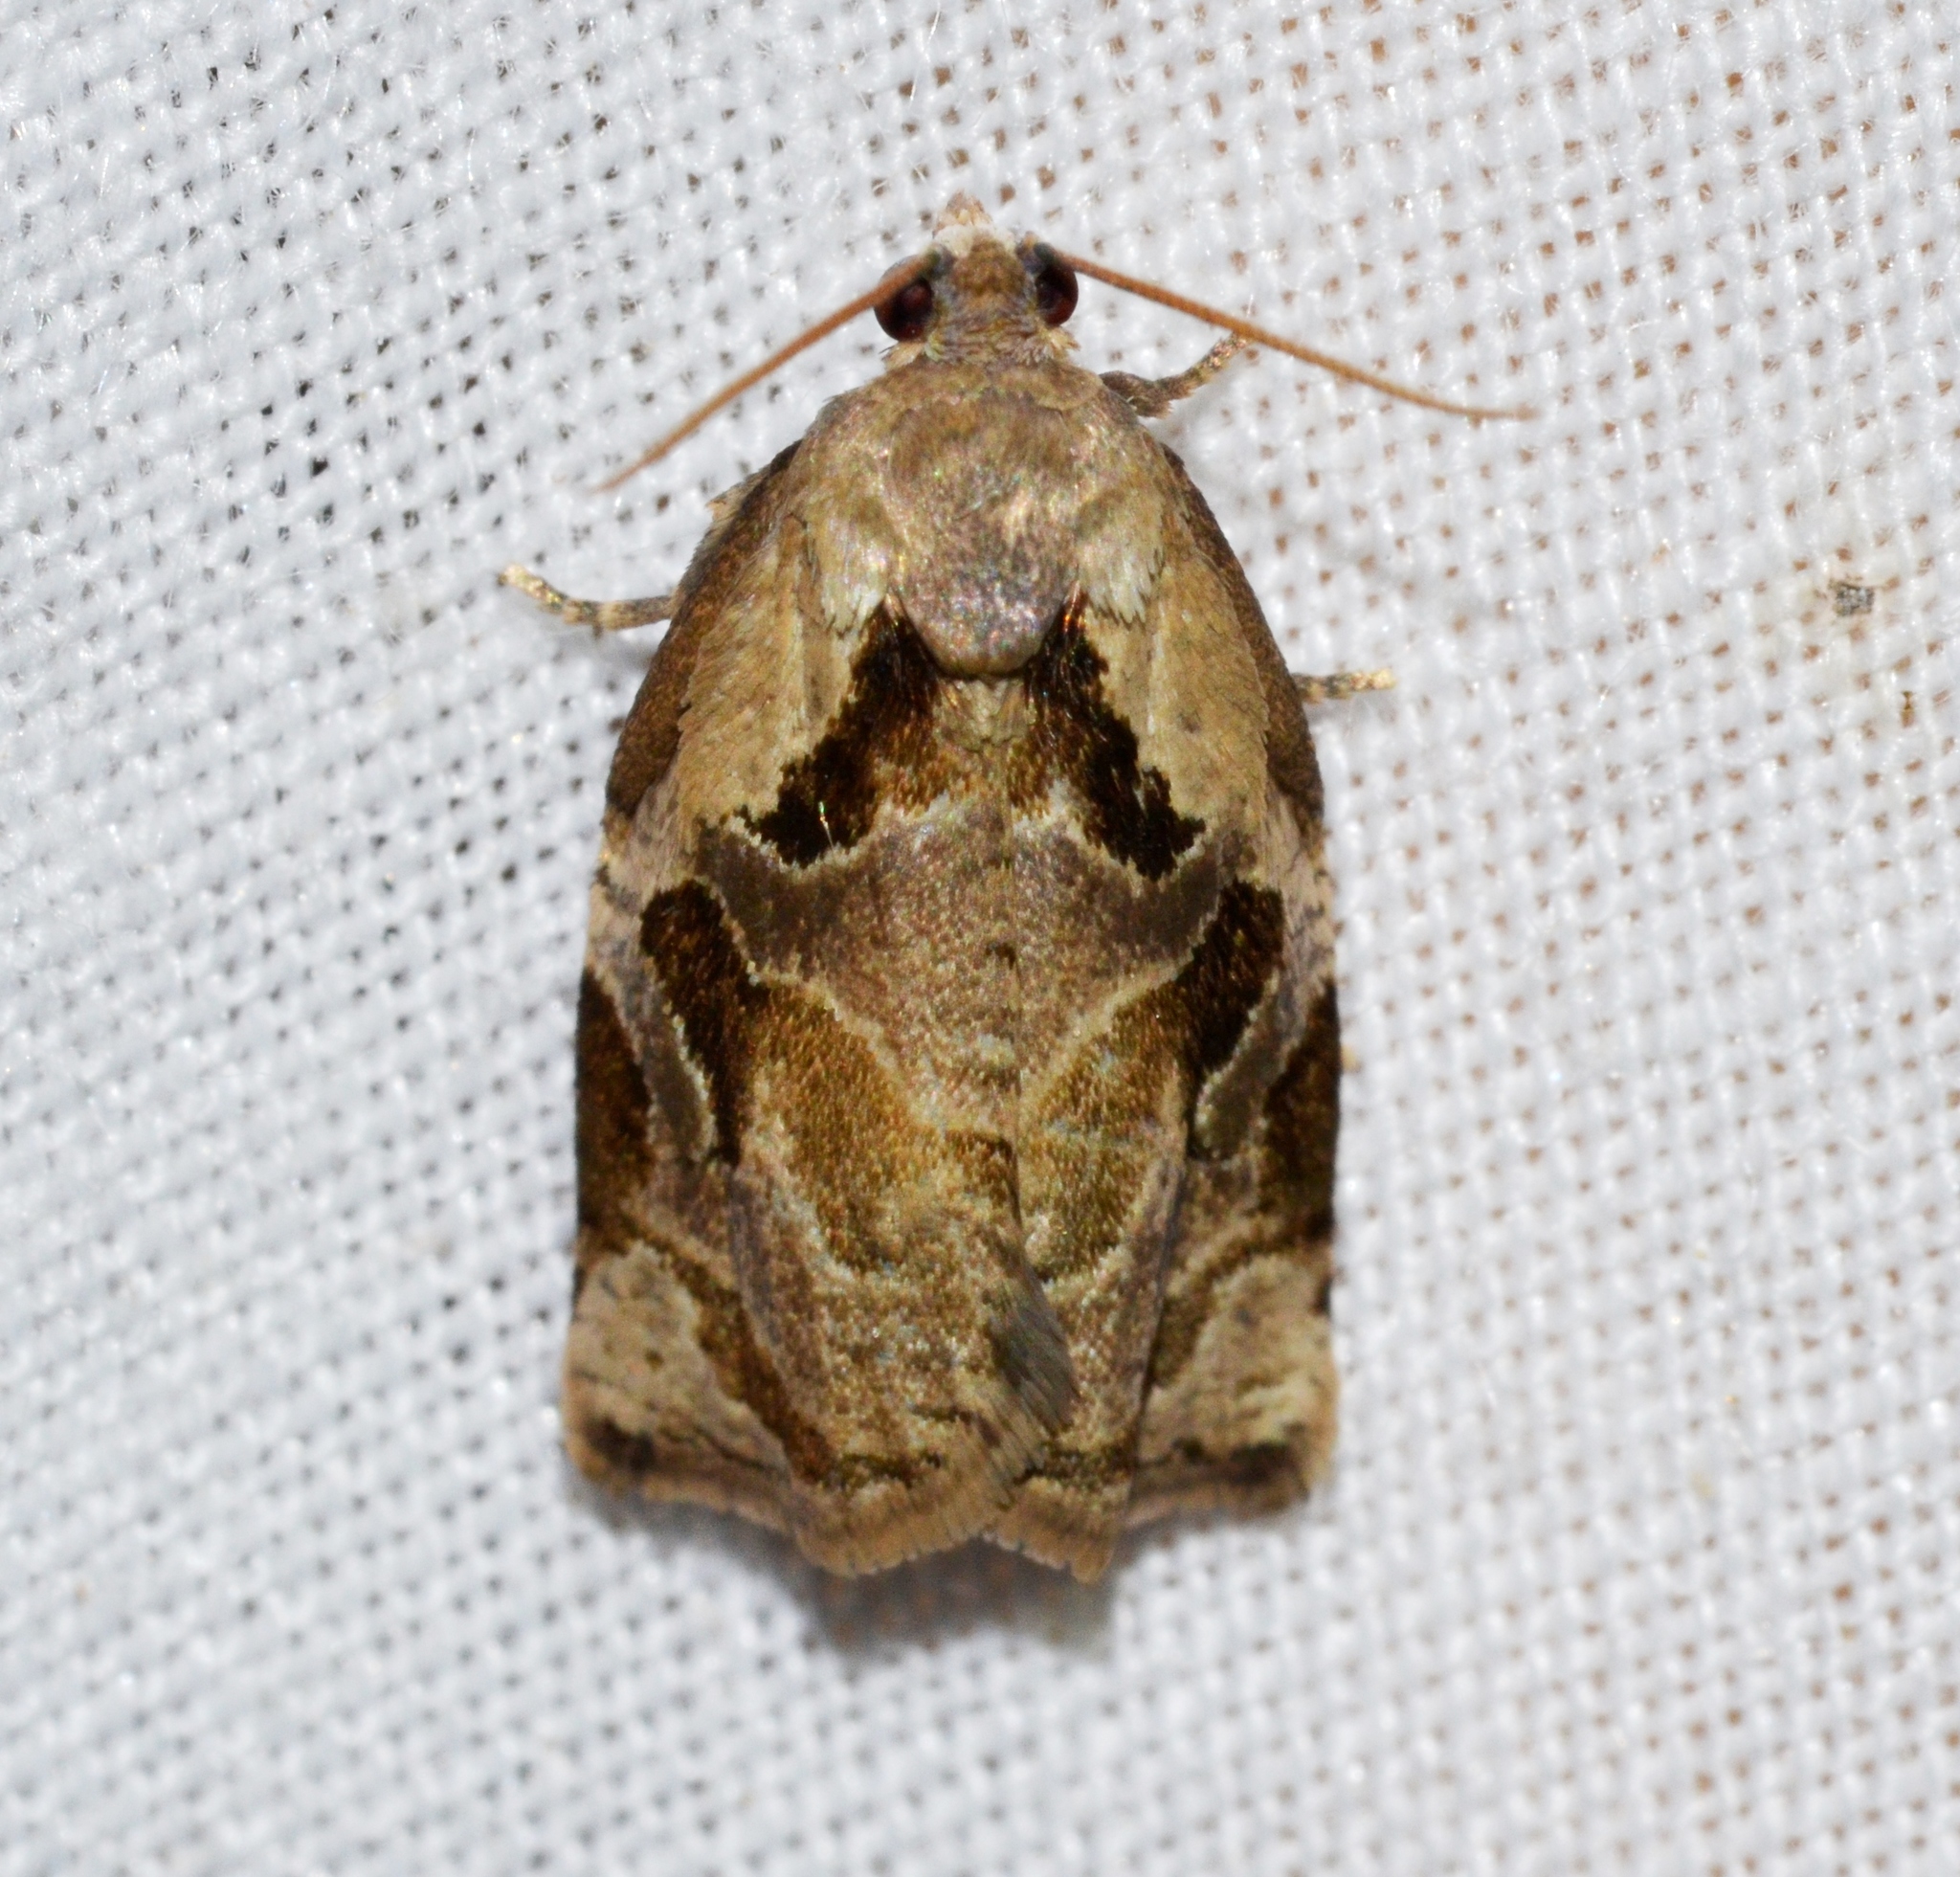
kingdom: Animalia
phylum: Arthropoda
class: Insecta
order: Lepidoptera
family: Tortricidae
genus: Archips
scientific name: Archips grisea
